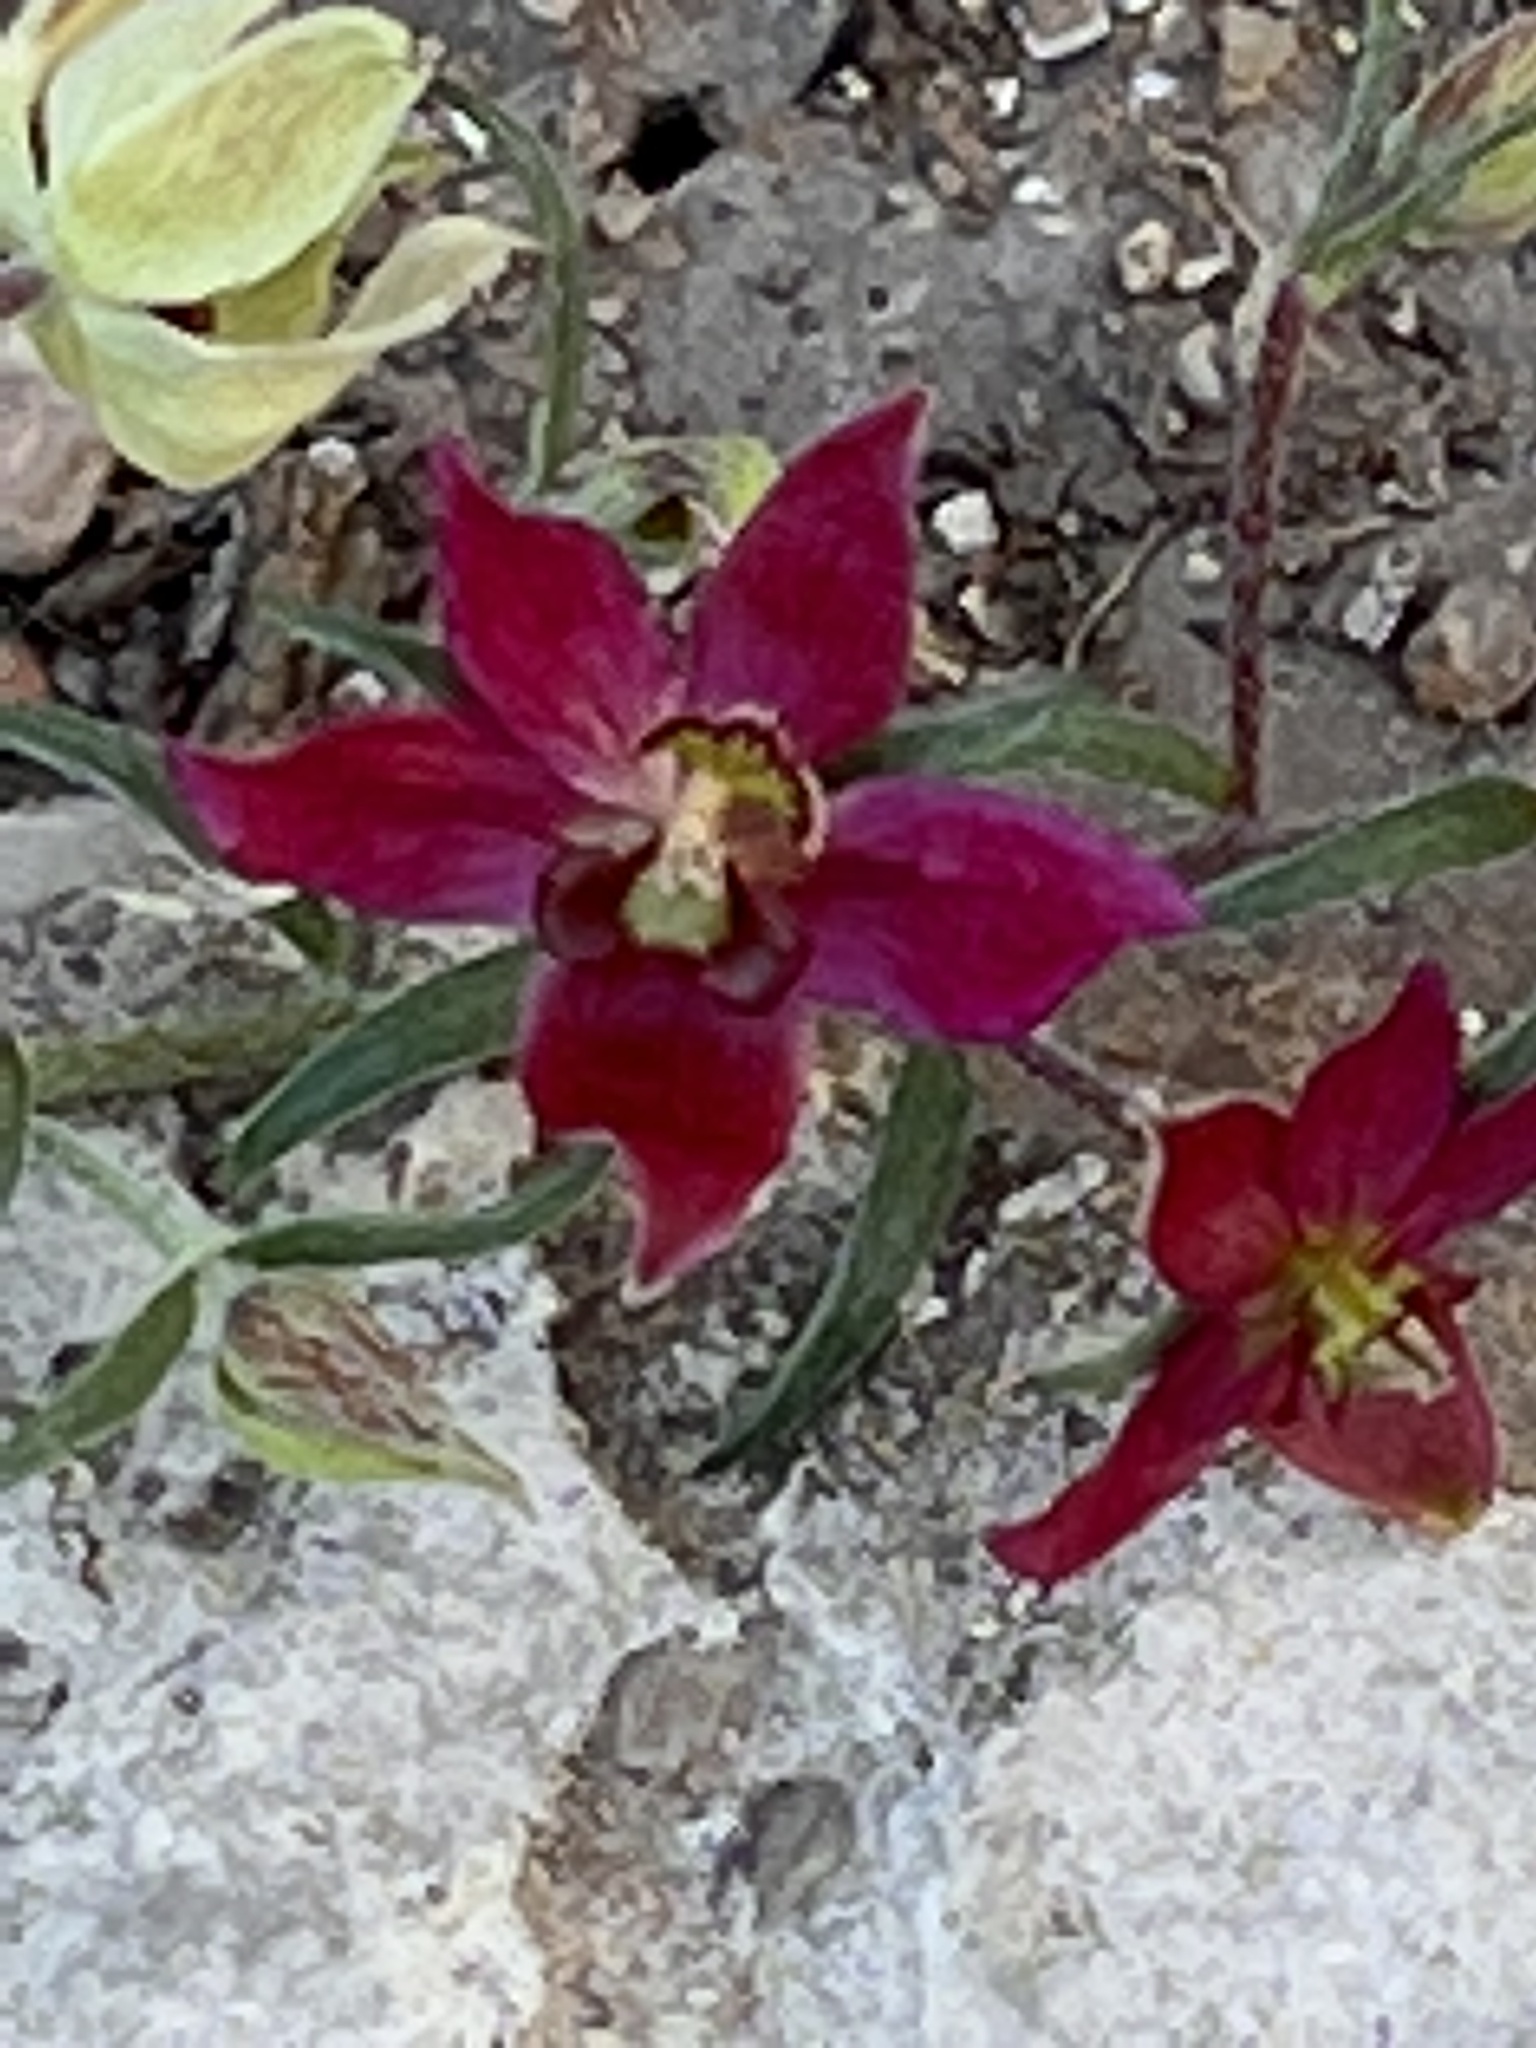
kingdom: Plantae
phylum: Tracheophyta
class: Magnoliopsida
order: Zygophyllales
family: Krameriaceae
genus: Krameria
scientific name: Krameria lanceolata
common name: Ratany
